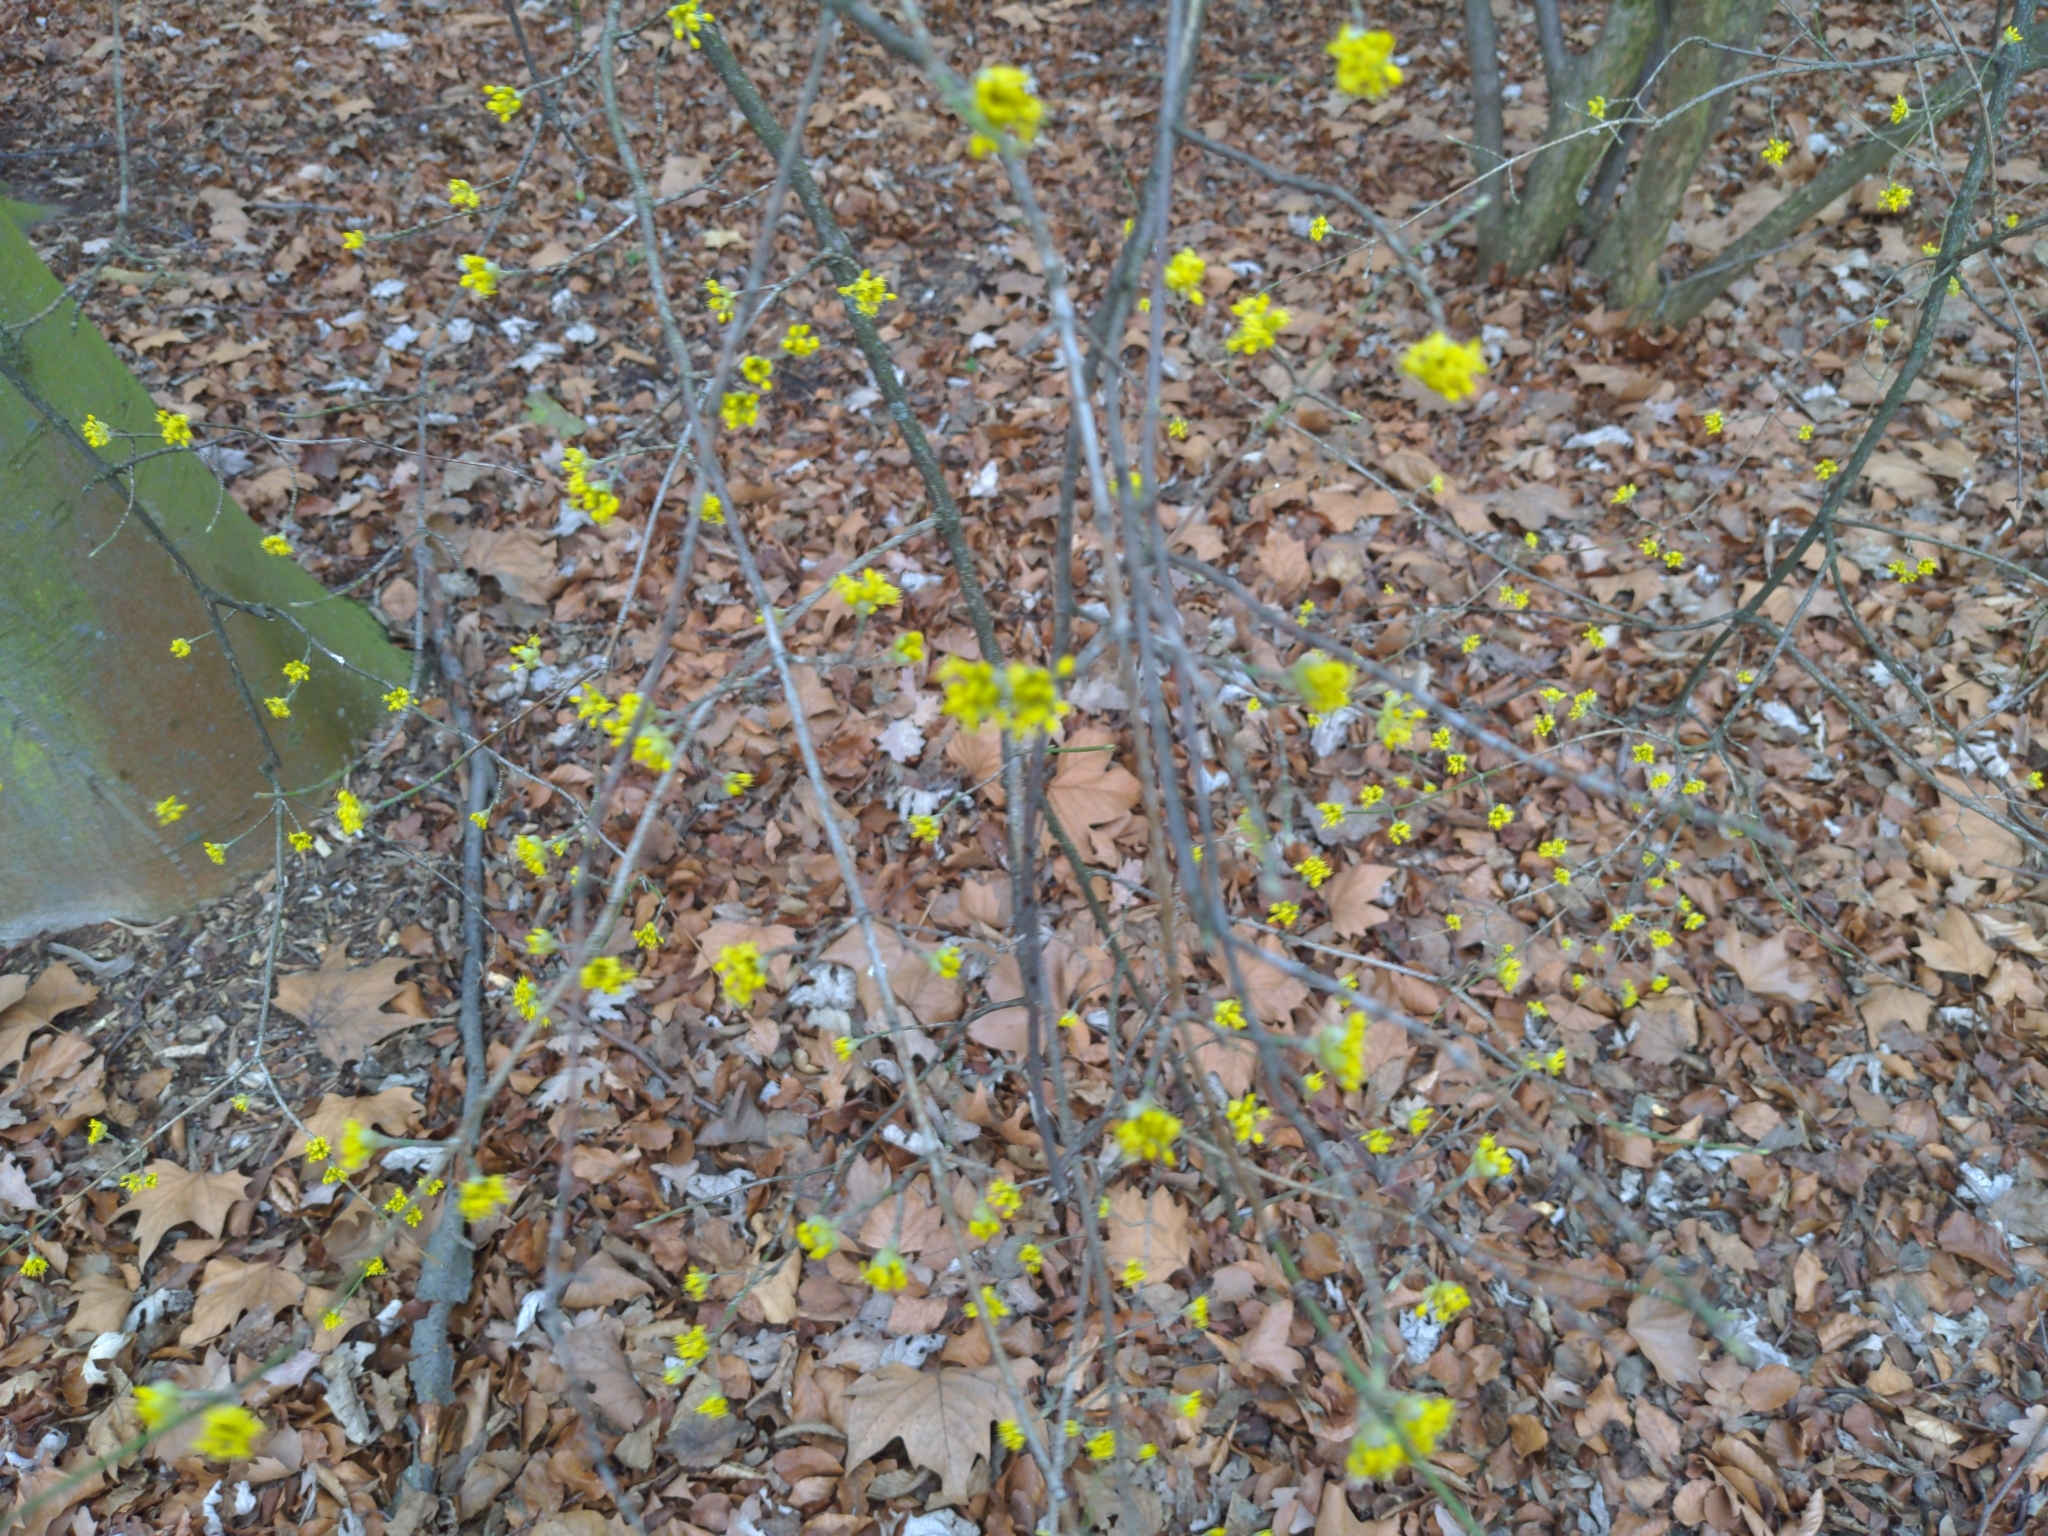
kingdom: Plantae
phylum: Tracheophyta
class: Magnoliopsida
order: Cornales
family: Cornaceae
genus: Cornus
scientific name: Cornus mas
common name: Cornelian-cherry
